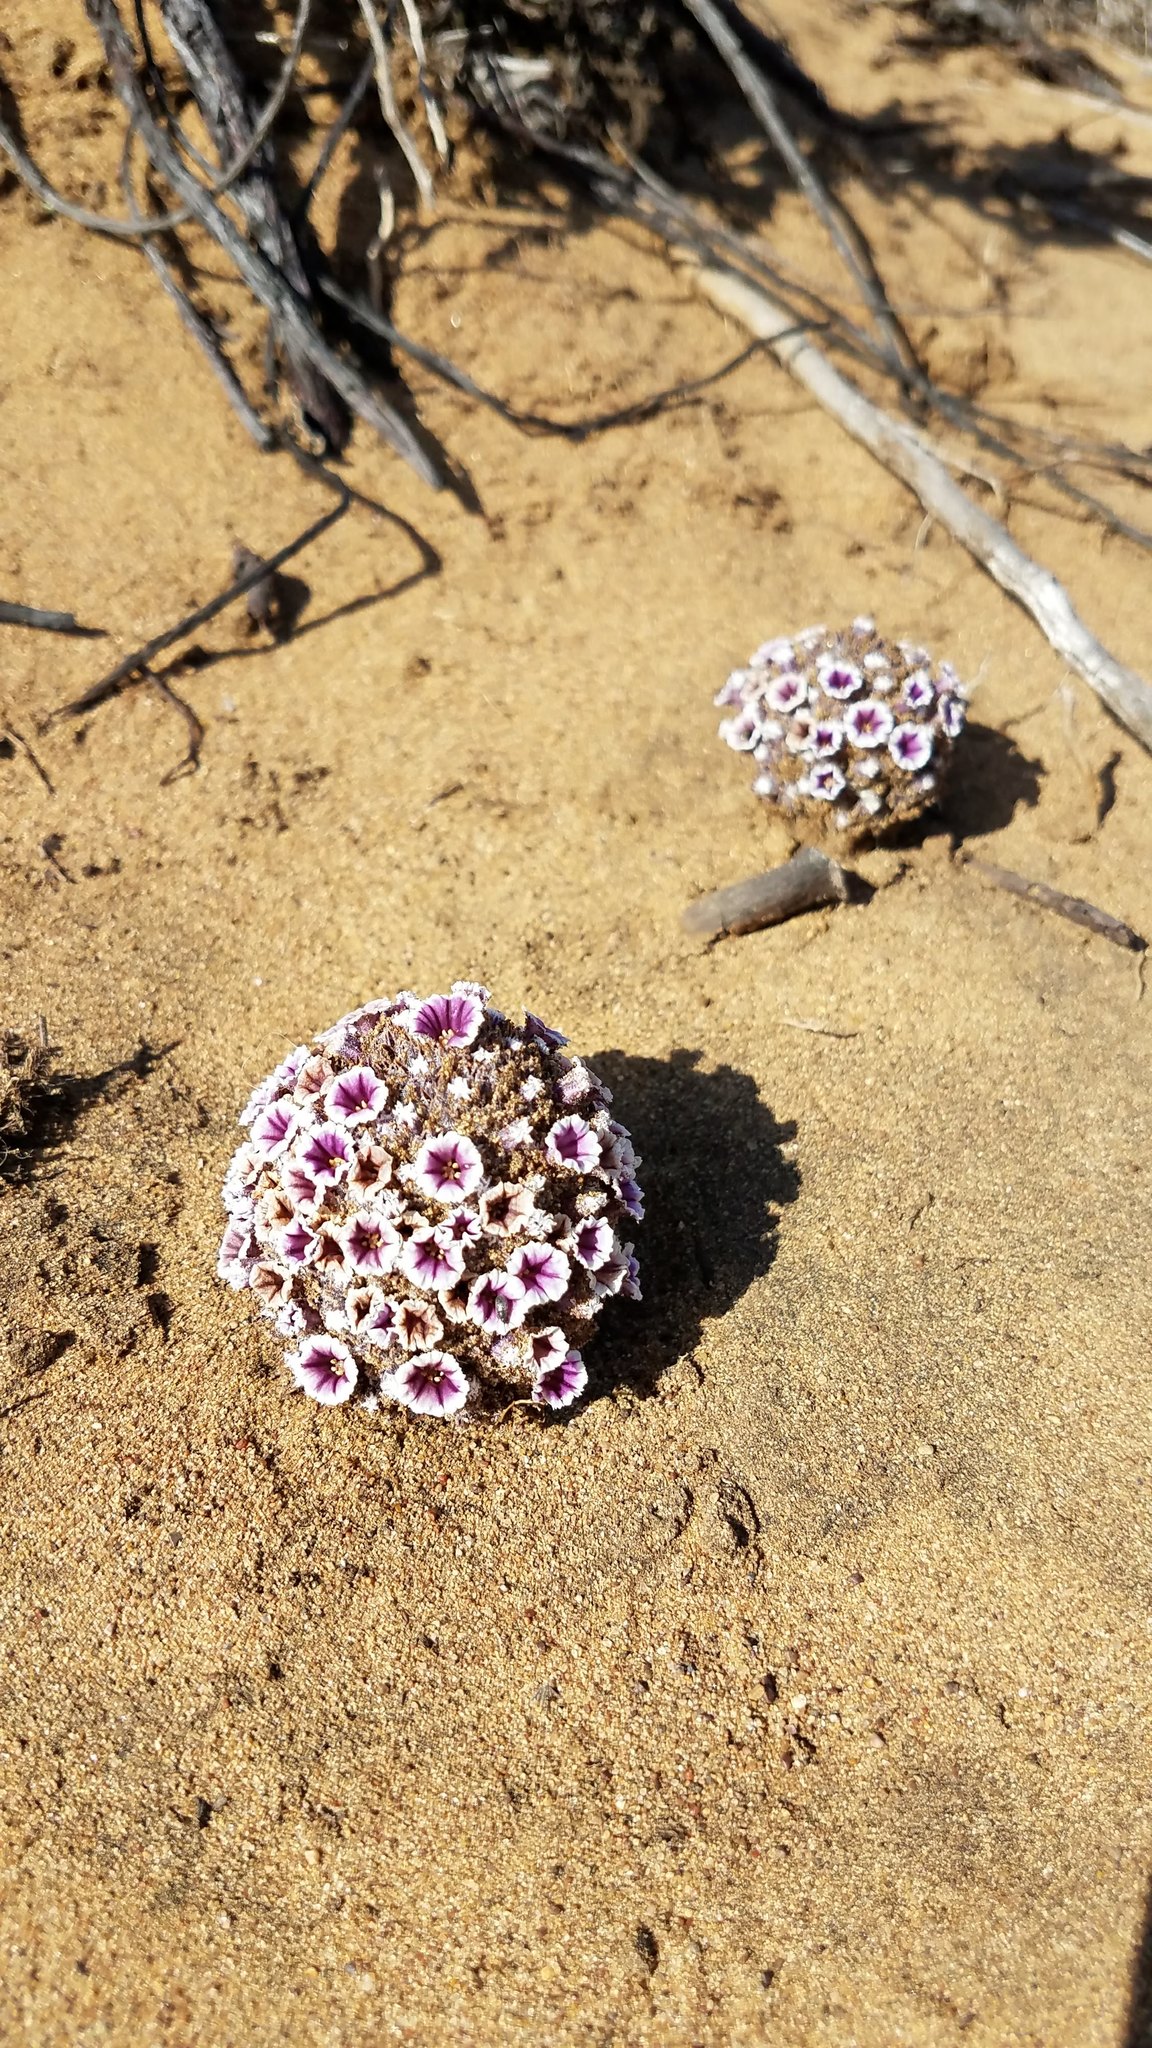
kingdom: Plantae
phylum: Tracheophyta
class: Magnoliopsida
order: Boraginales
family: Lennoaceae
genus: Pholisma
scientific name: Pholisma arenarium
